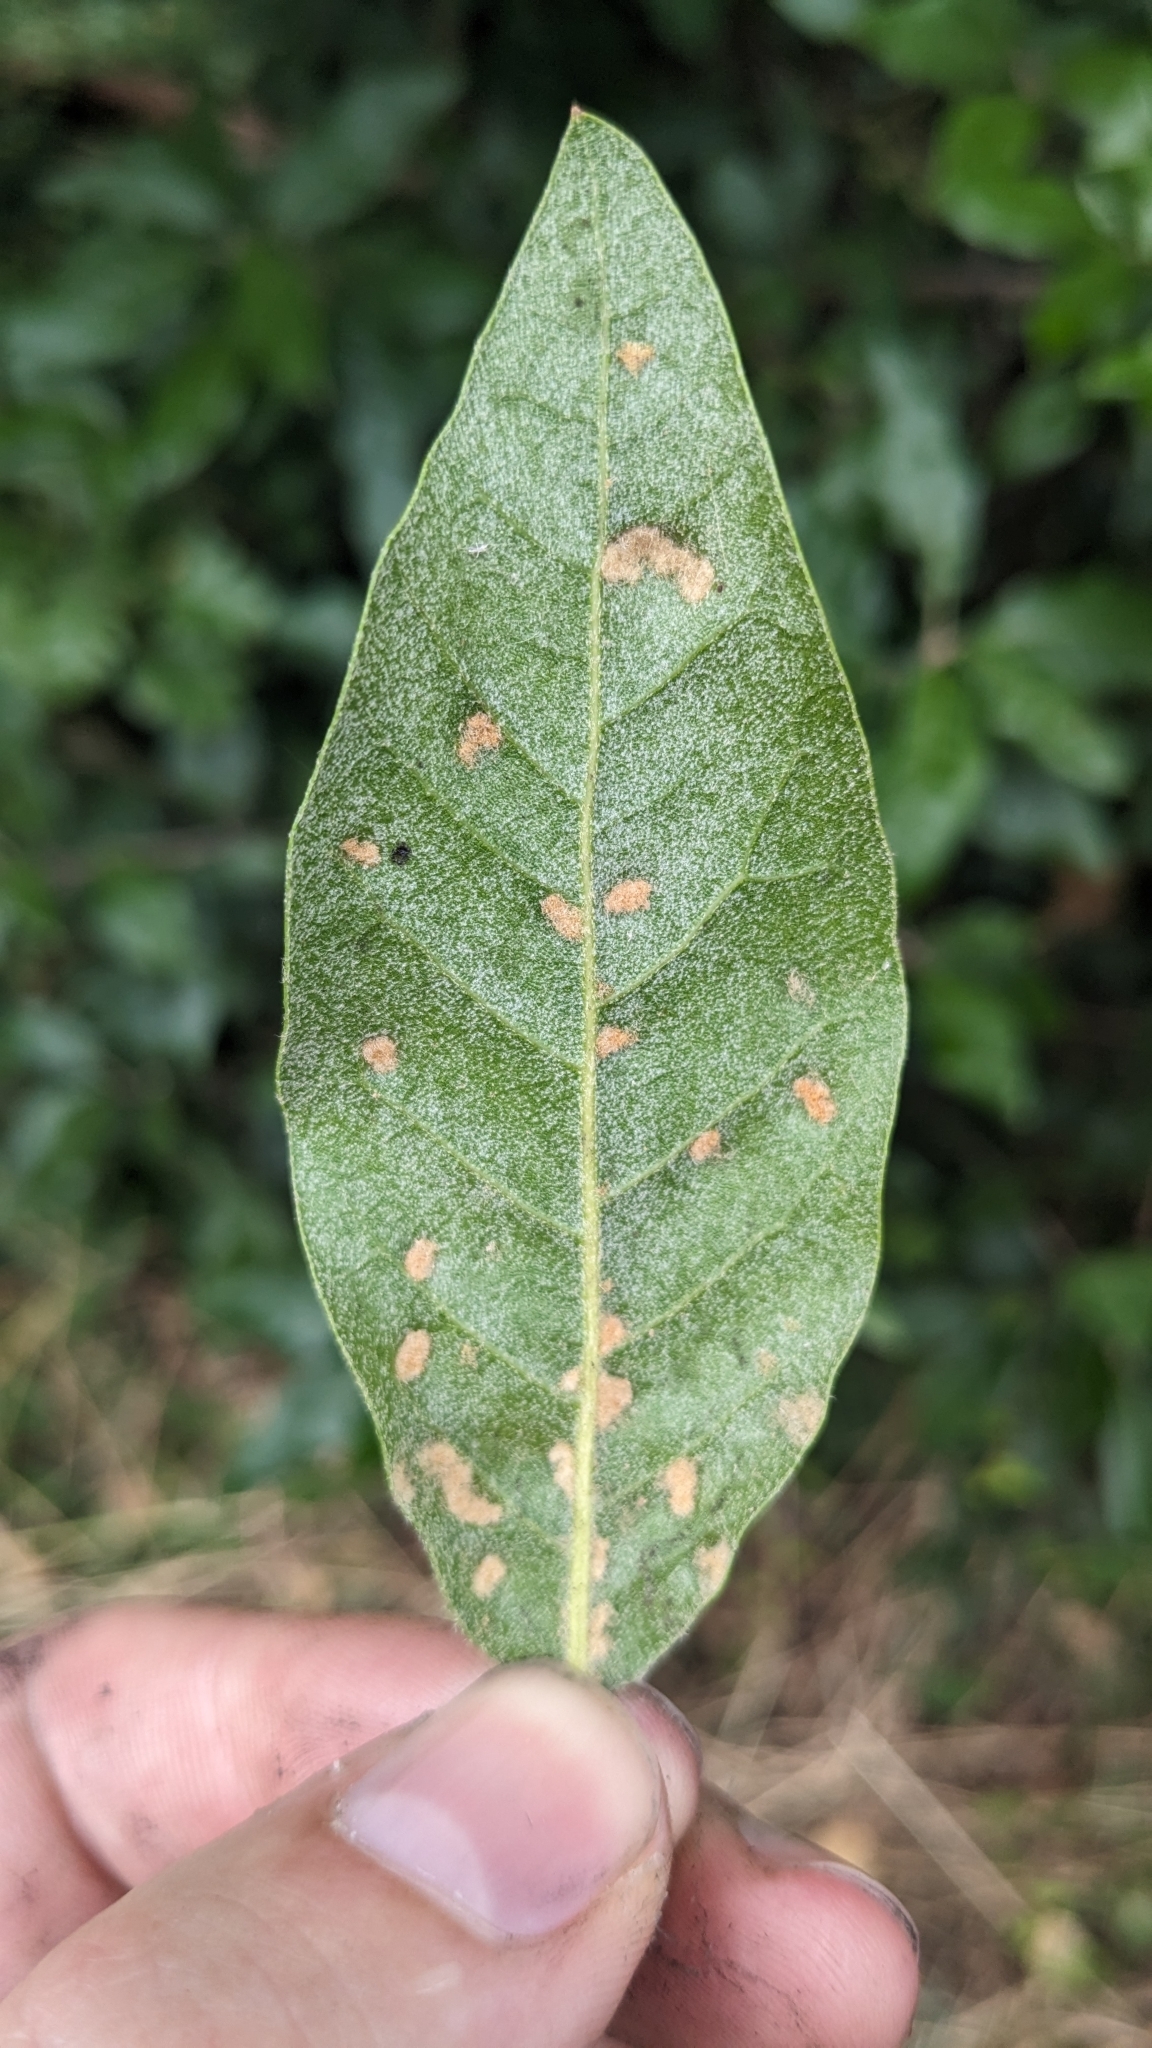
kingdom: Animalia
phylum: Arthropoda
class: Arachnida
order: Trombidiformes
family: Eriophyidae
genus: Aceria
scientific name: Aceria ilicis
